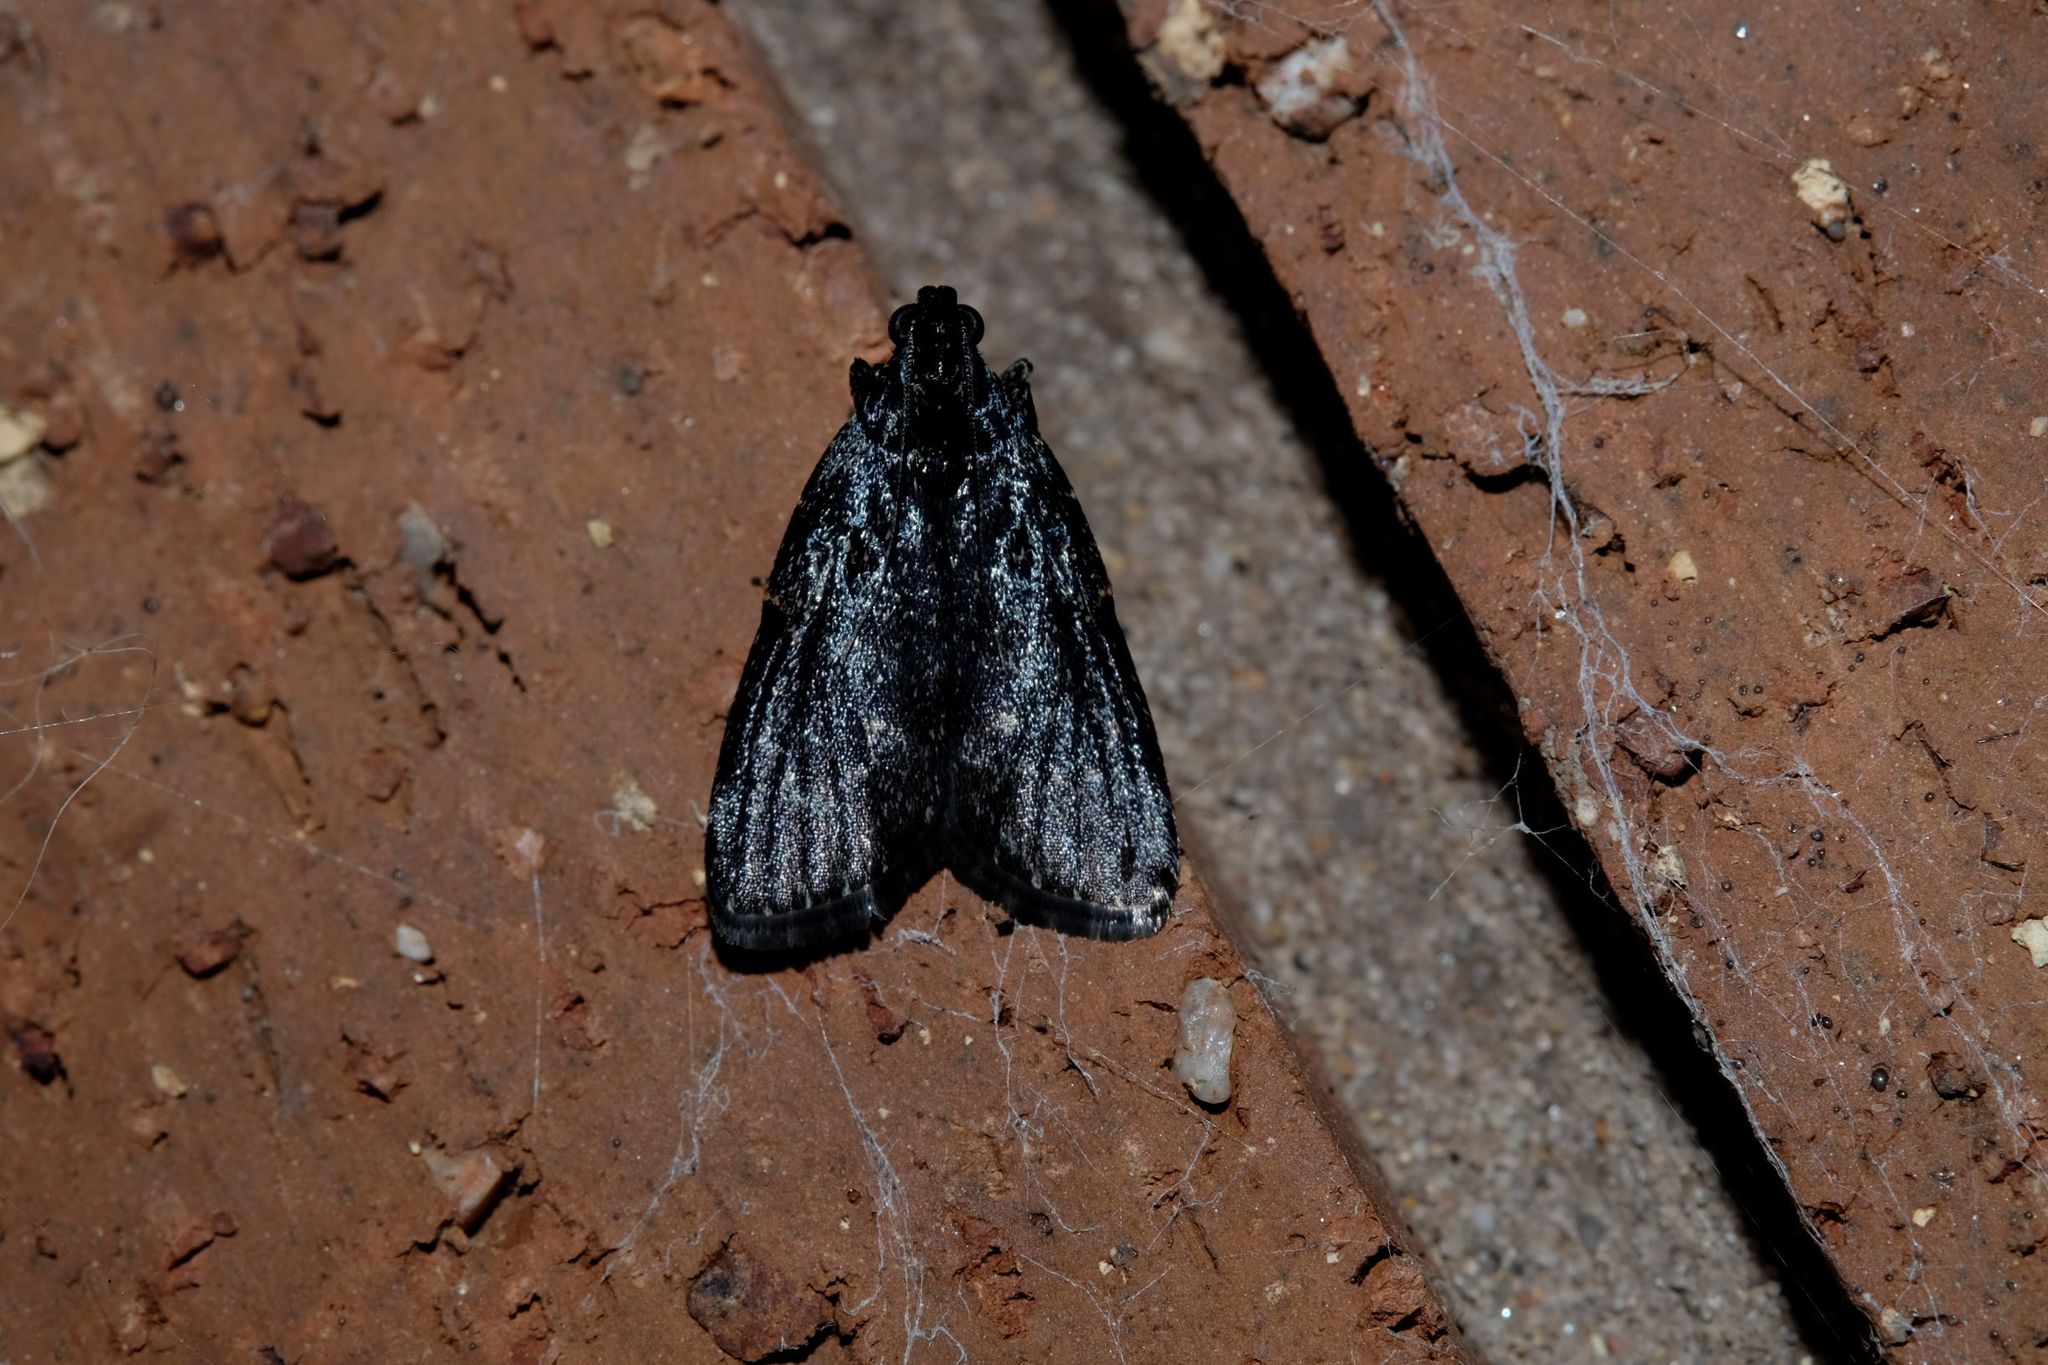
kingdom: Animalia
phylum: Arthropoda
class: Insecta
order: Lepidoptera
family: Pyralidae
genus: Stericta
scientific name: Stericta carbonalis
